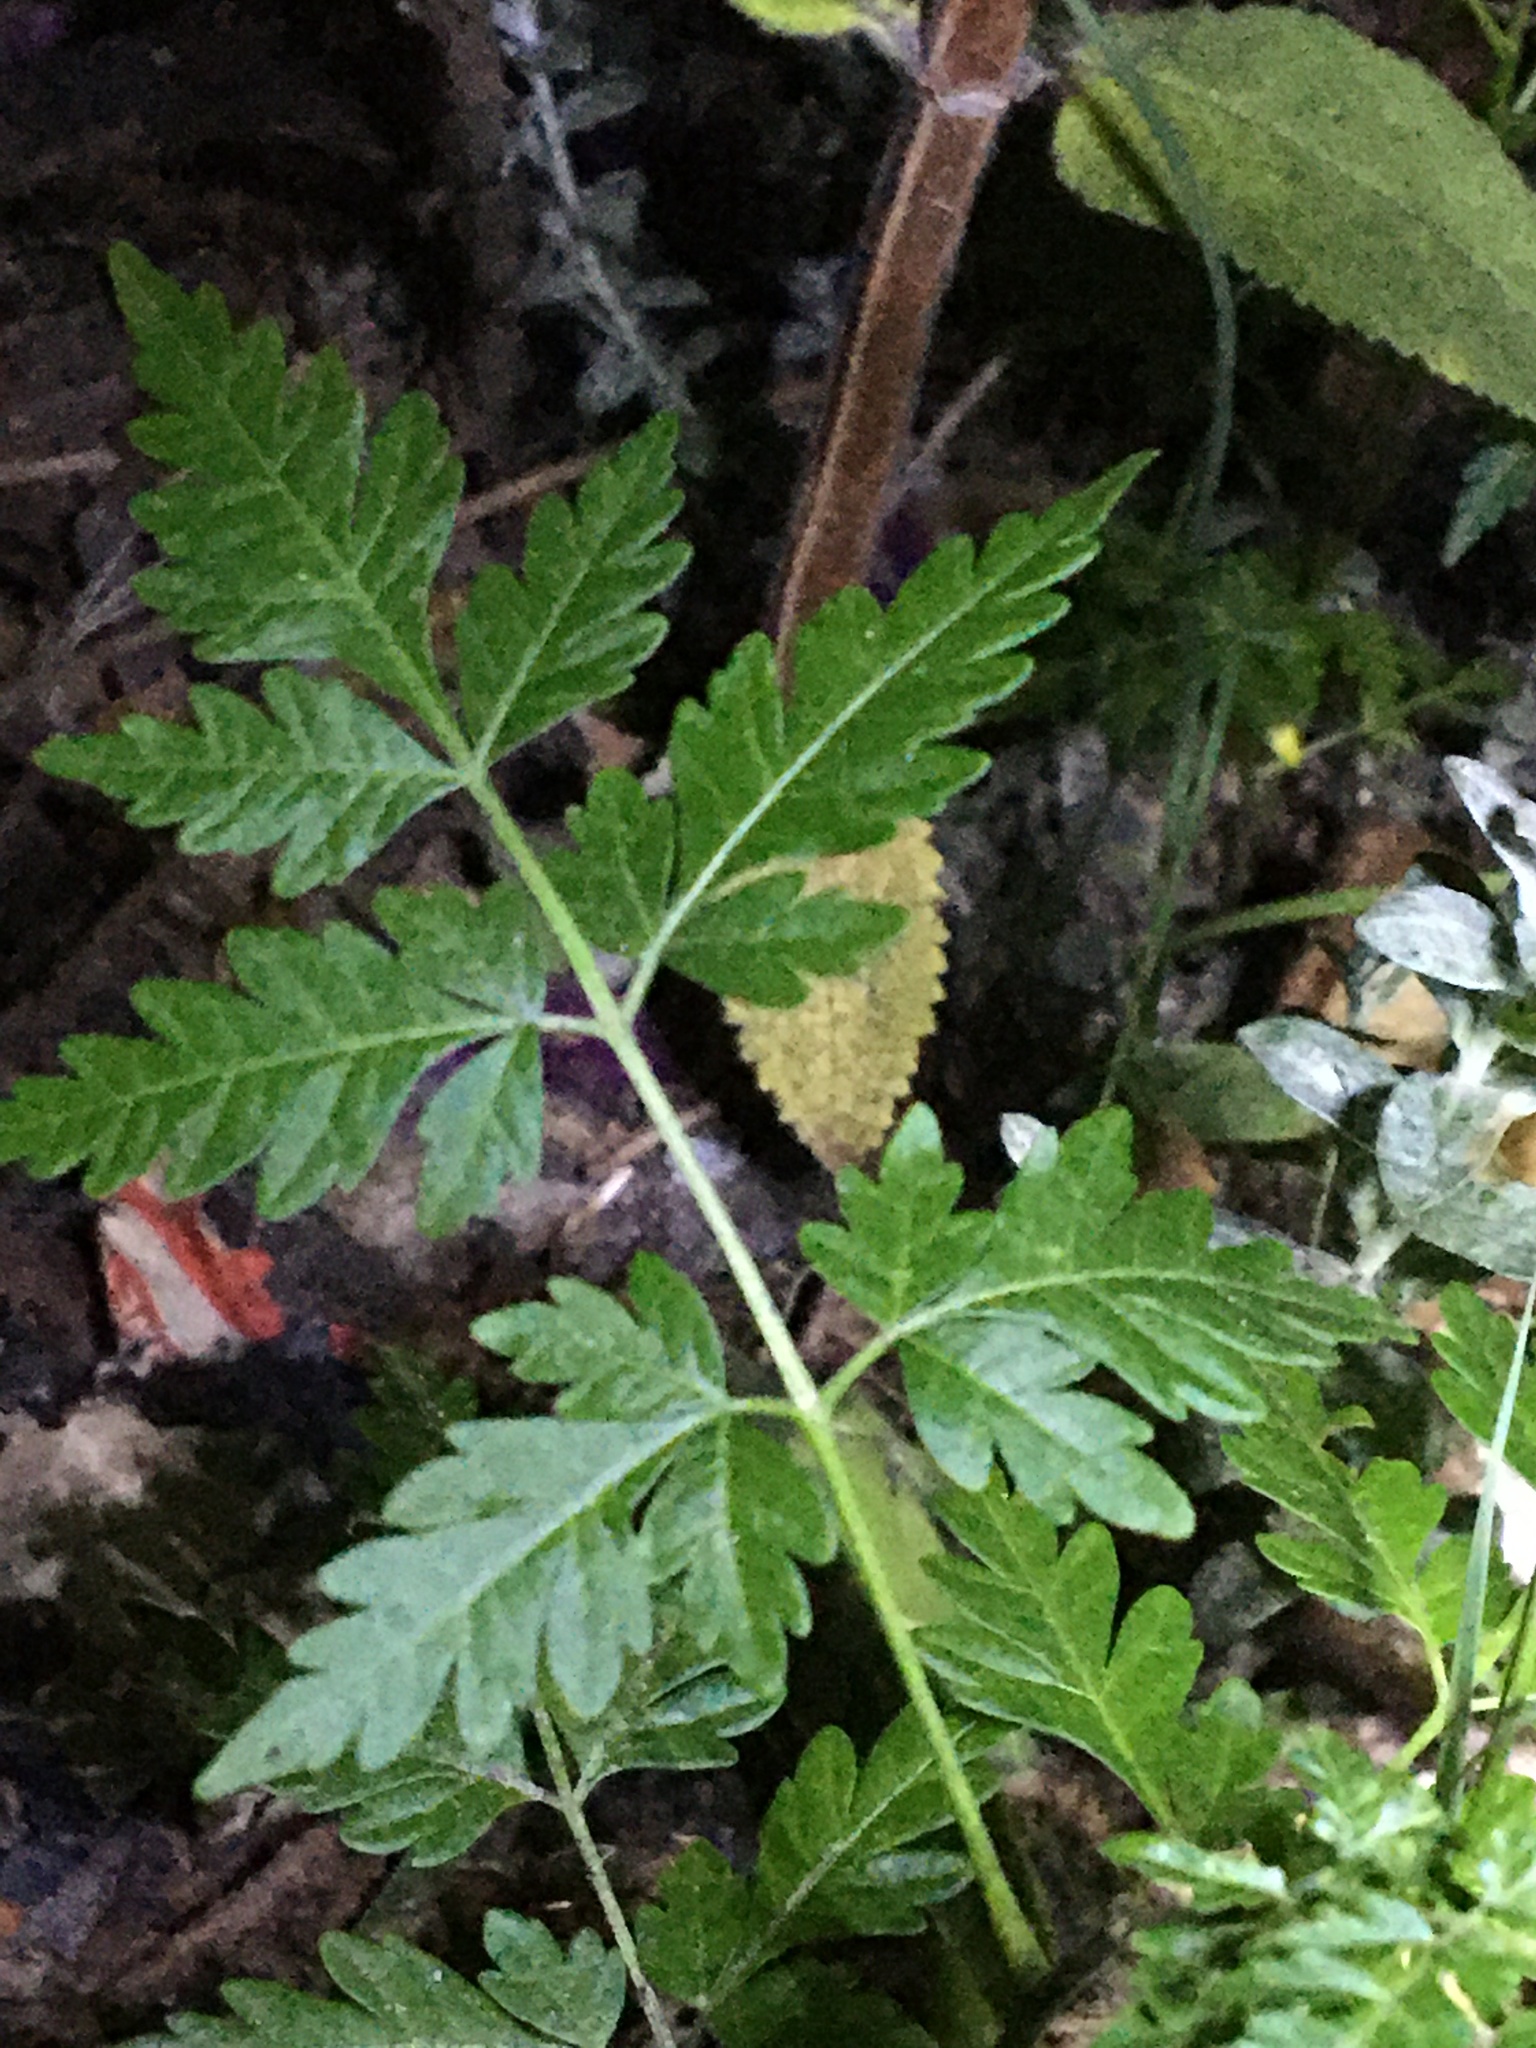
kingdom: Plantae
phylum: Tracheophyta
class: Magnoliopsida
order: Sapindales
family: Meliaceae
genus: Melia
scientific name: Melia azedarach
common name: Chinaberrytree
